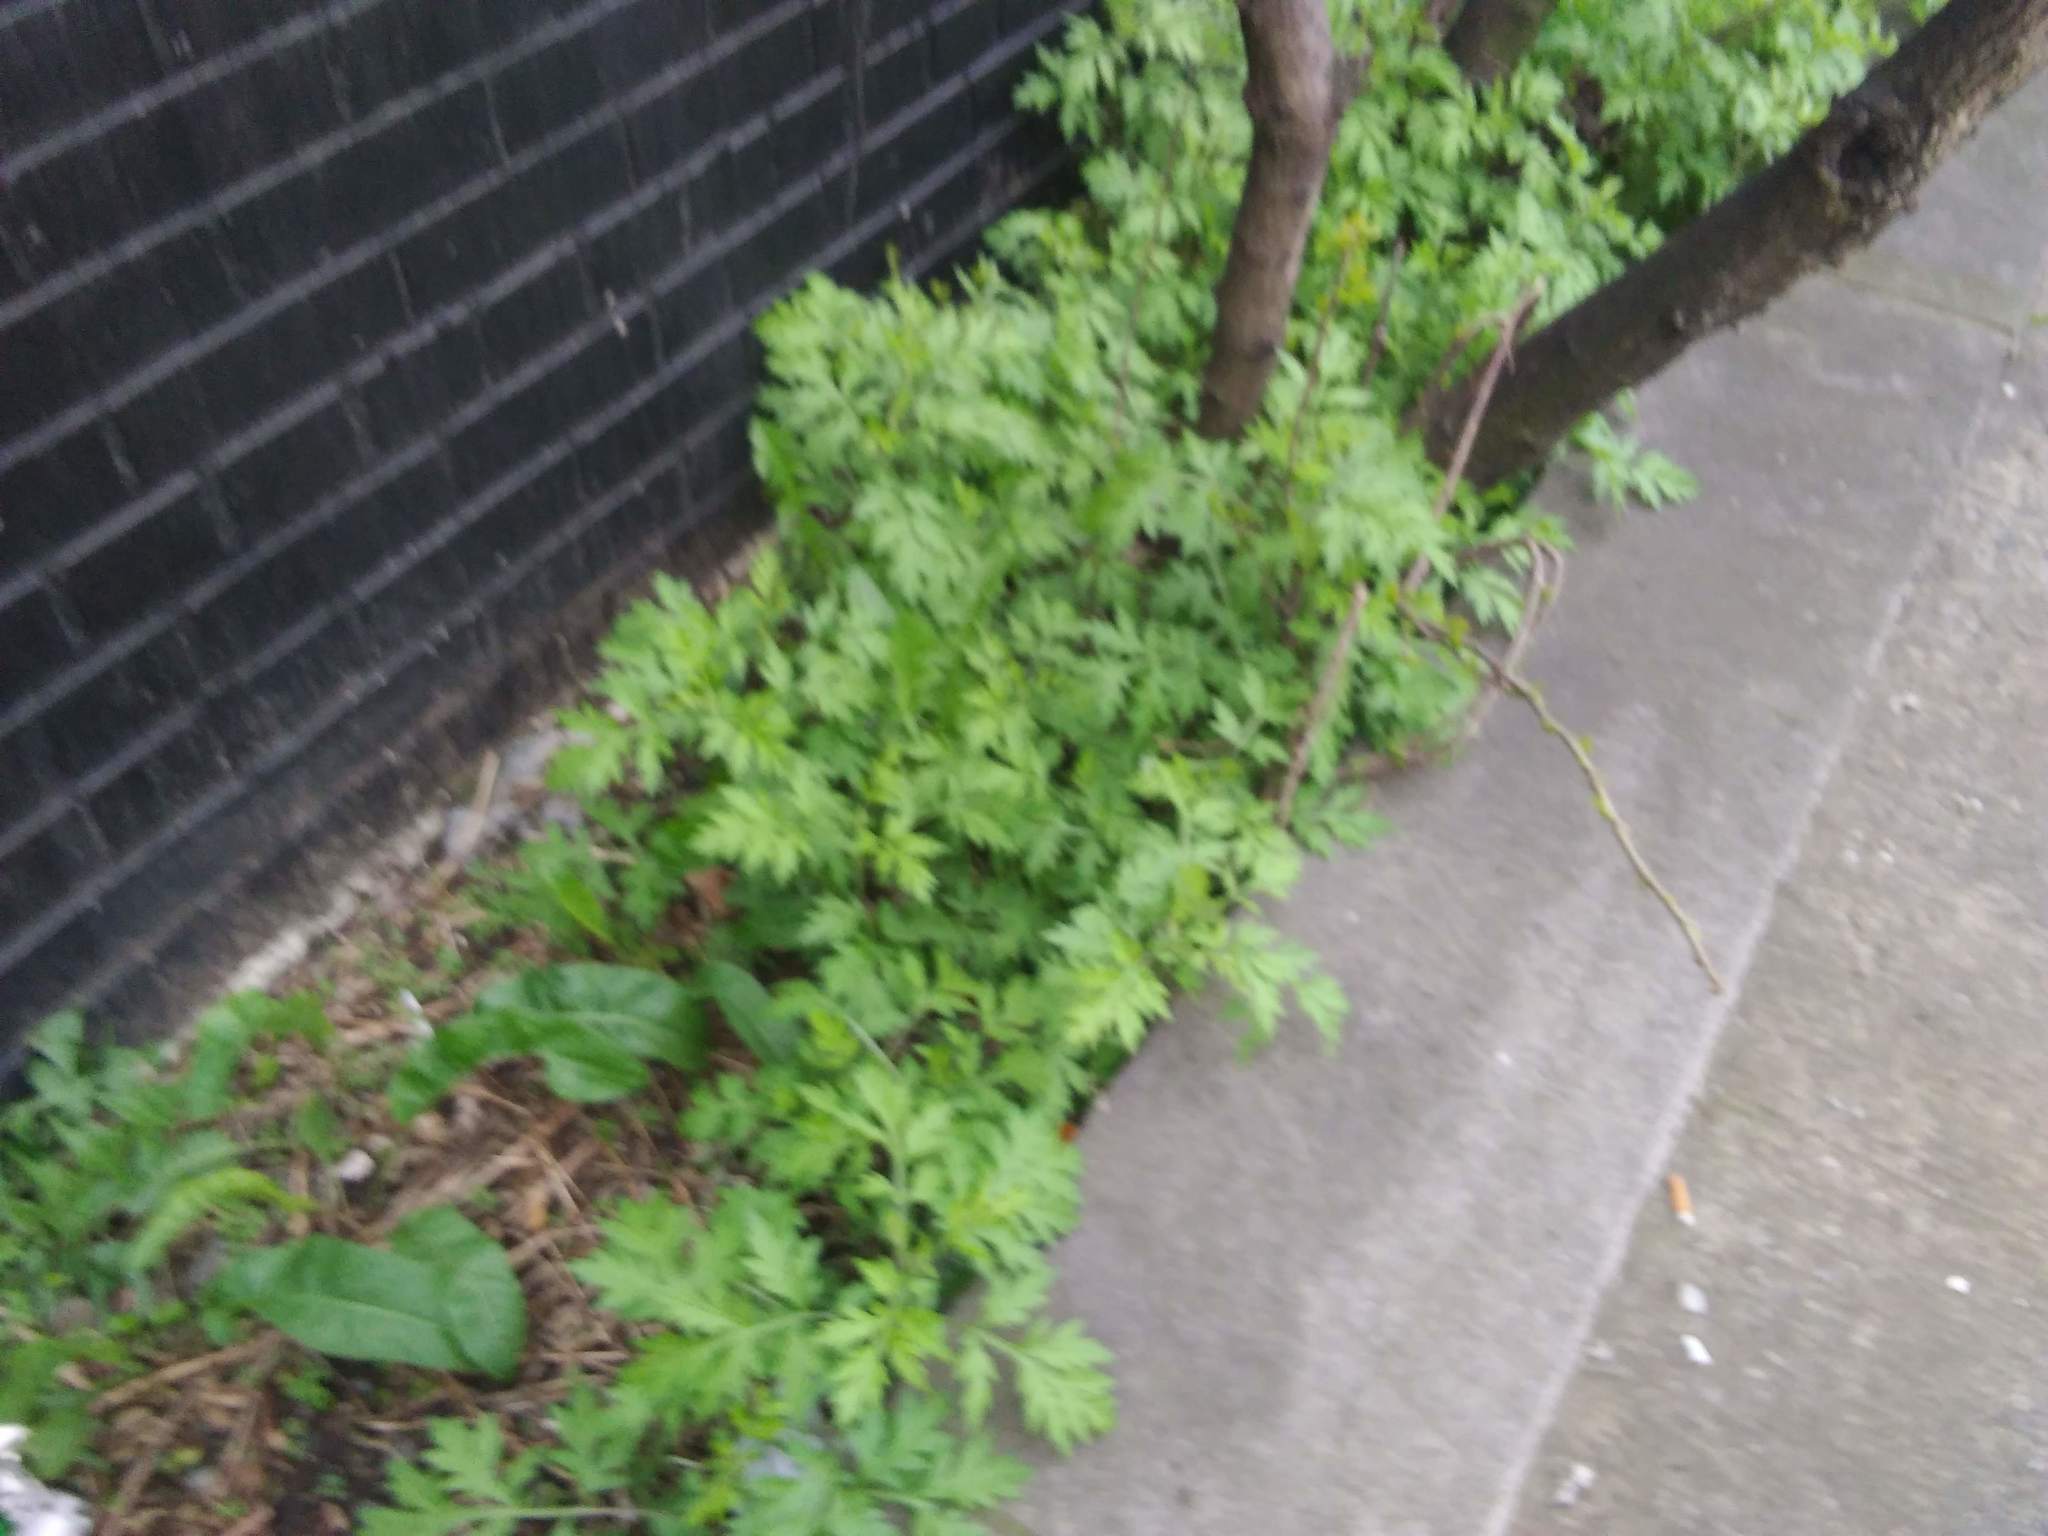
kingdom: Plantae
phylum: Tracheophyta
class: Magnoliopsida
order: Asterales
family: Asteraceae
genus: Artemisia
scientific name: Artemisia vulgaris
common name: Mugwort
